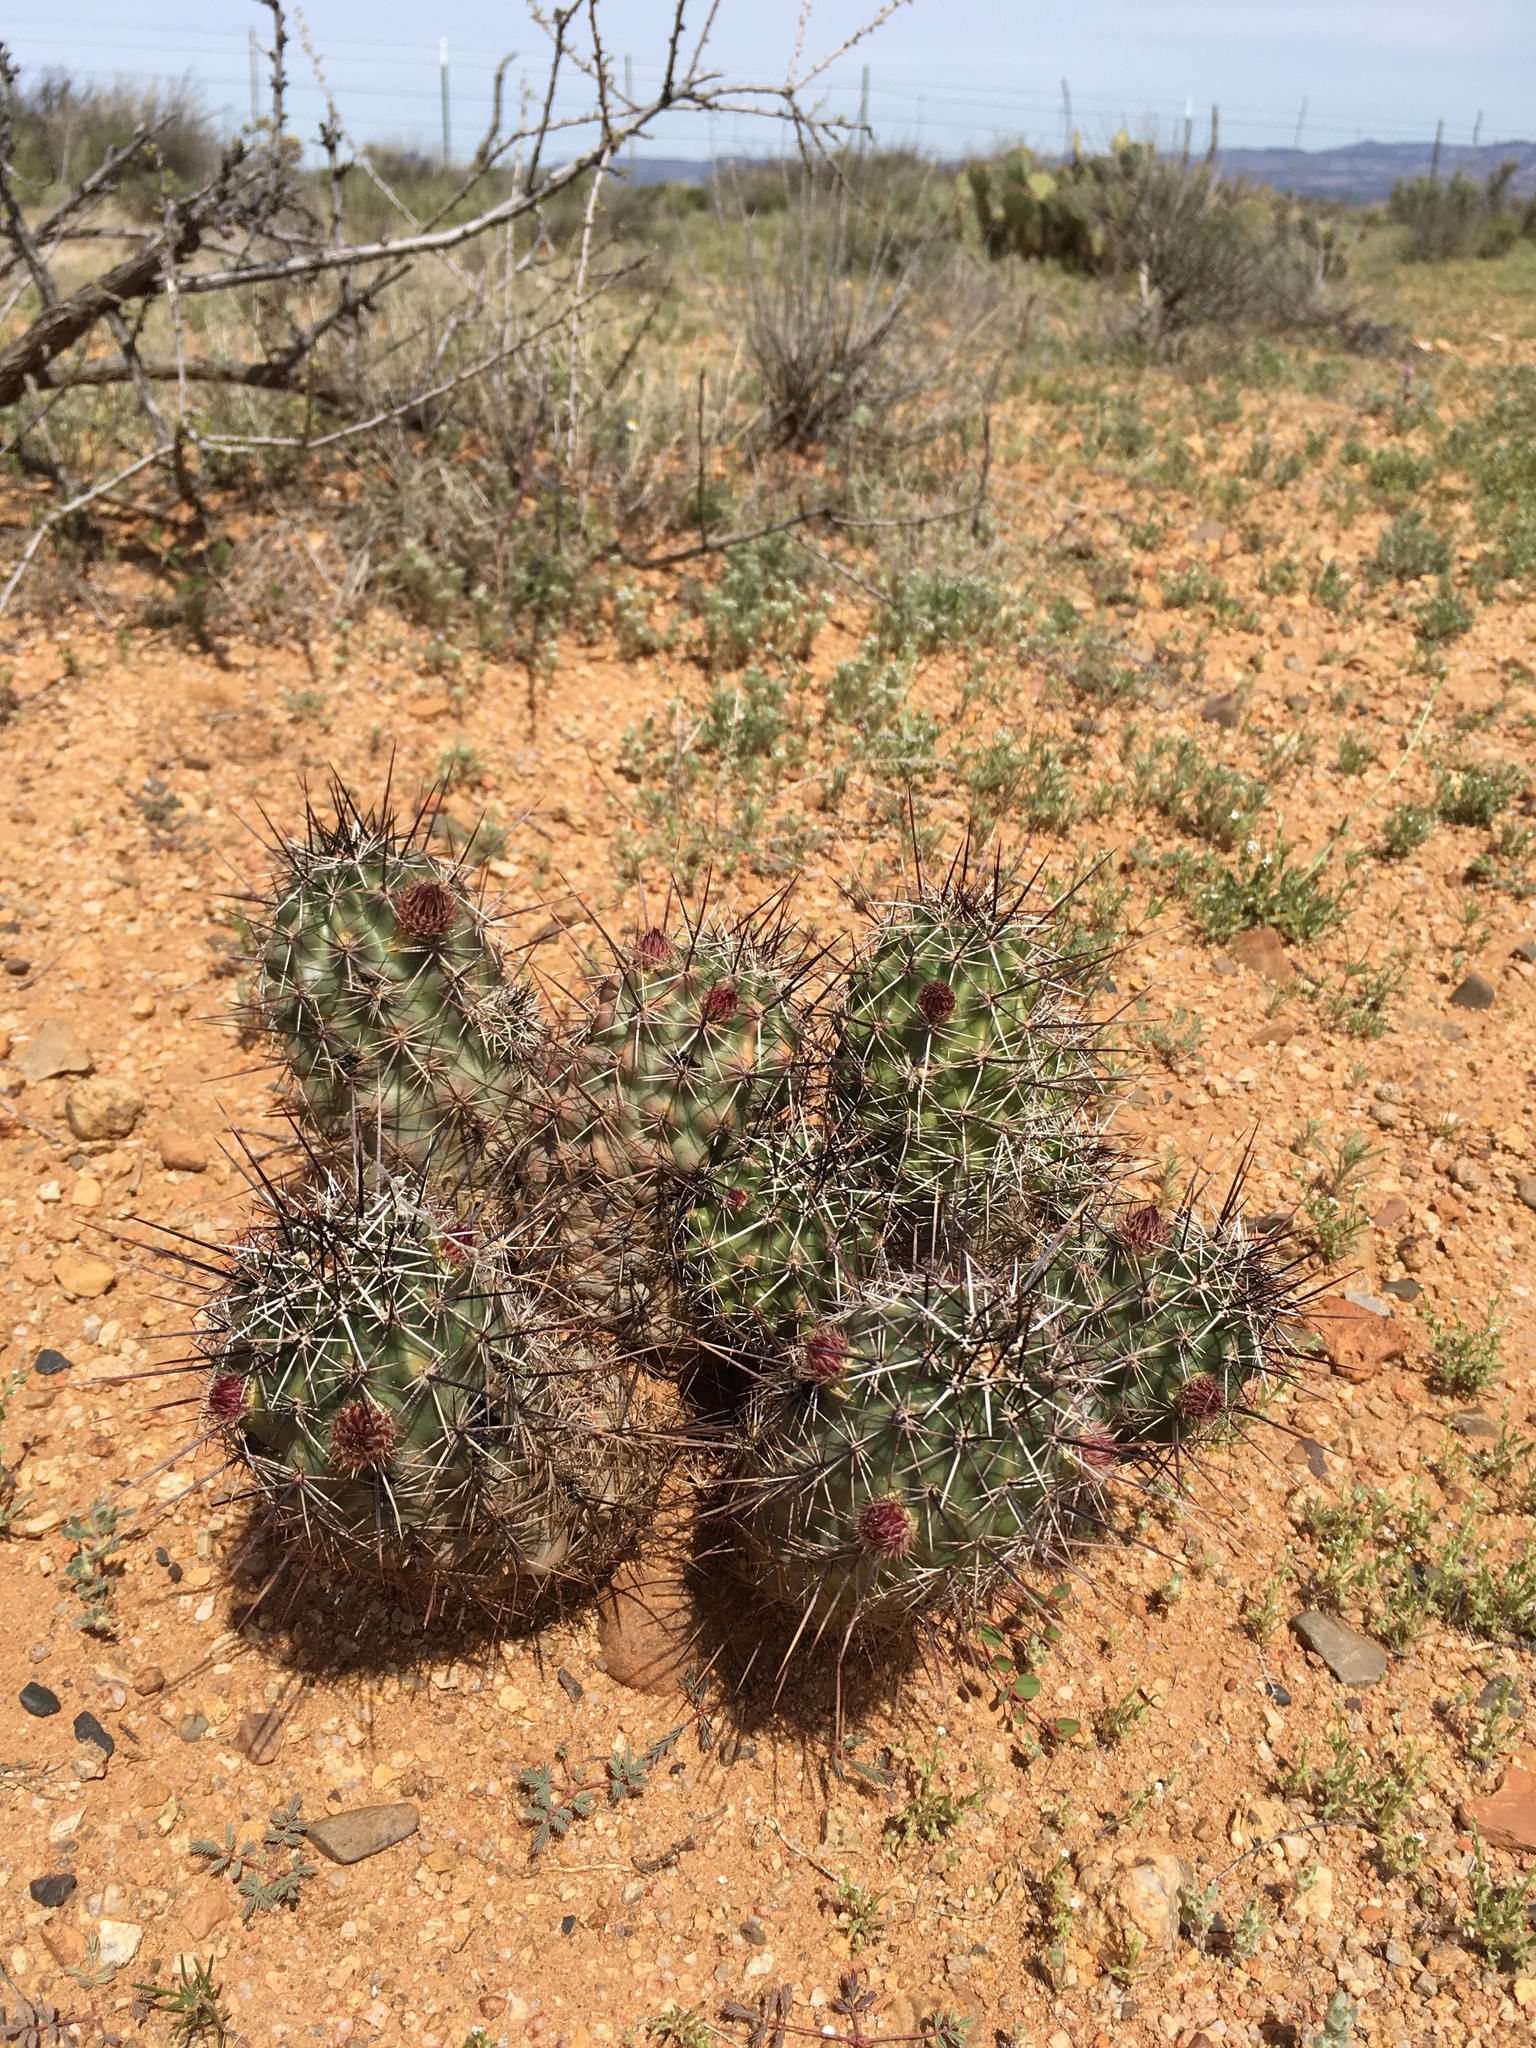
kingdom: Plantae
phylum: Tracheophyta
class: Magnoliopsida
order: Caryophyllales
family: Cactaceae
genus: Echinocereus
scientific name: Echinocereus fendleri
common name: Fendler's hedgehog cactus
